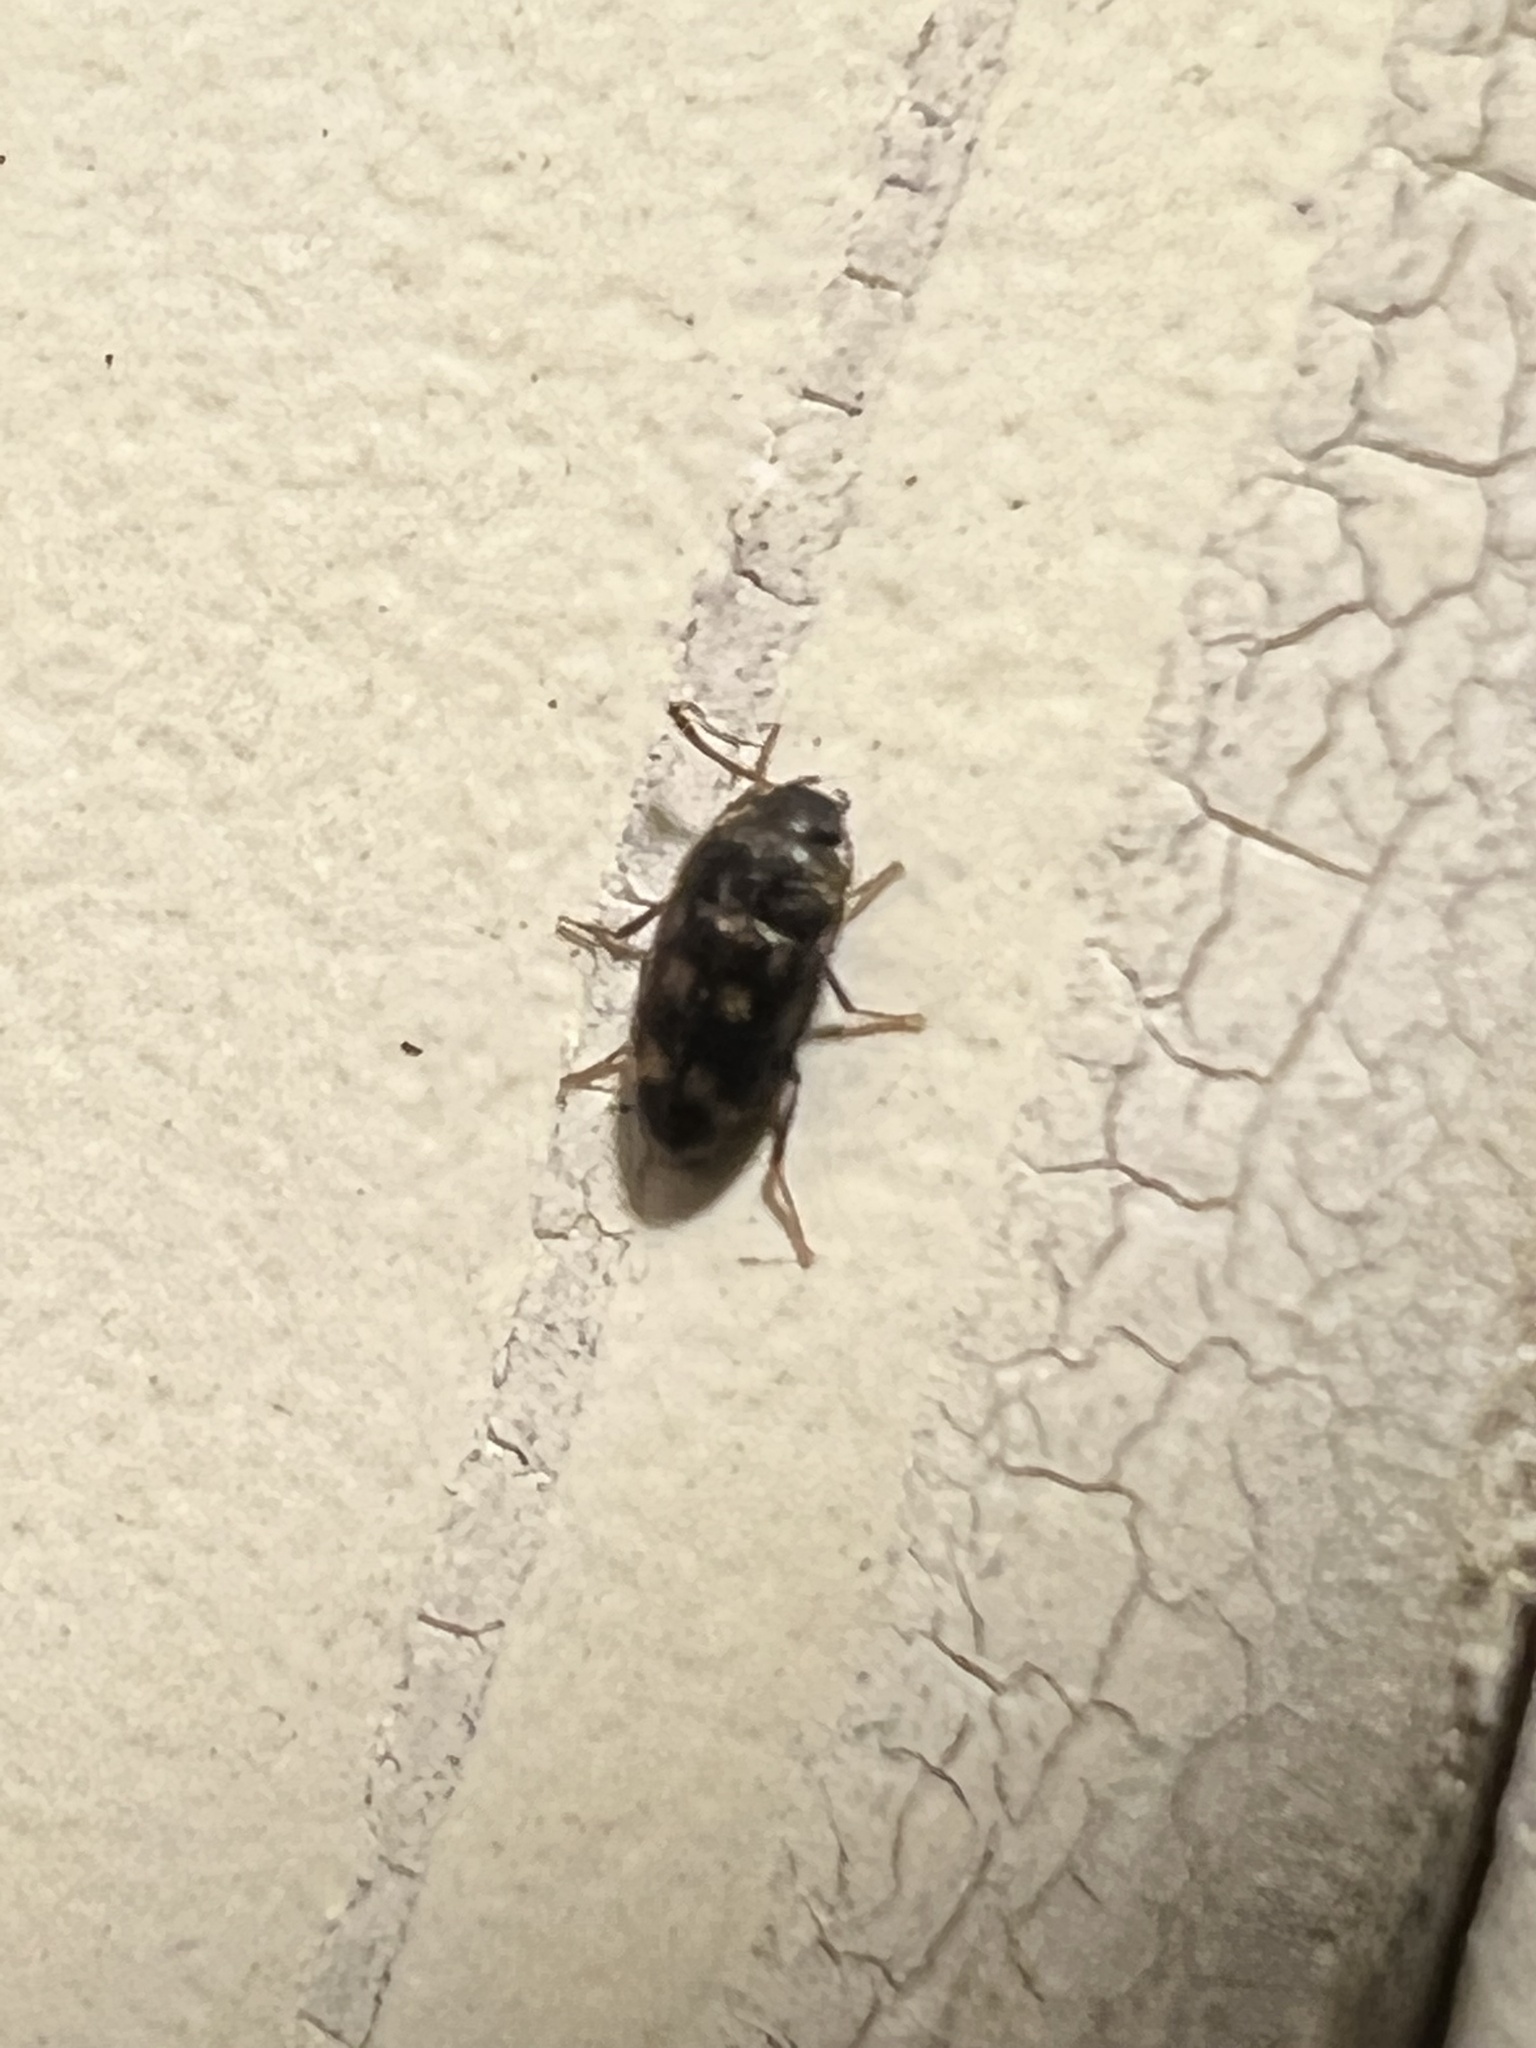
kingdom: Animalia
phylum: Arthropoda
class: Insecta
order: Coleoptera
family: Mycetophagidae
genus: Litargus
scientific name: Litargus sexpunctatus
